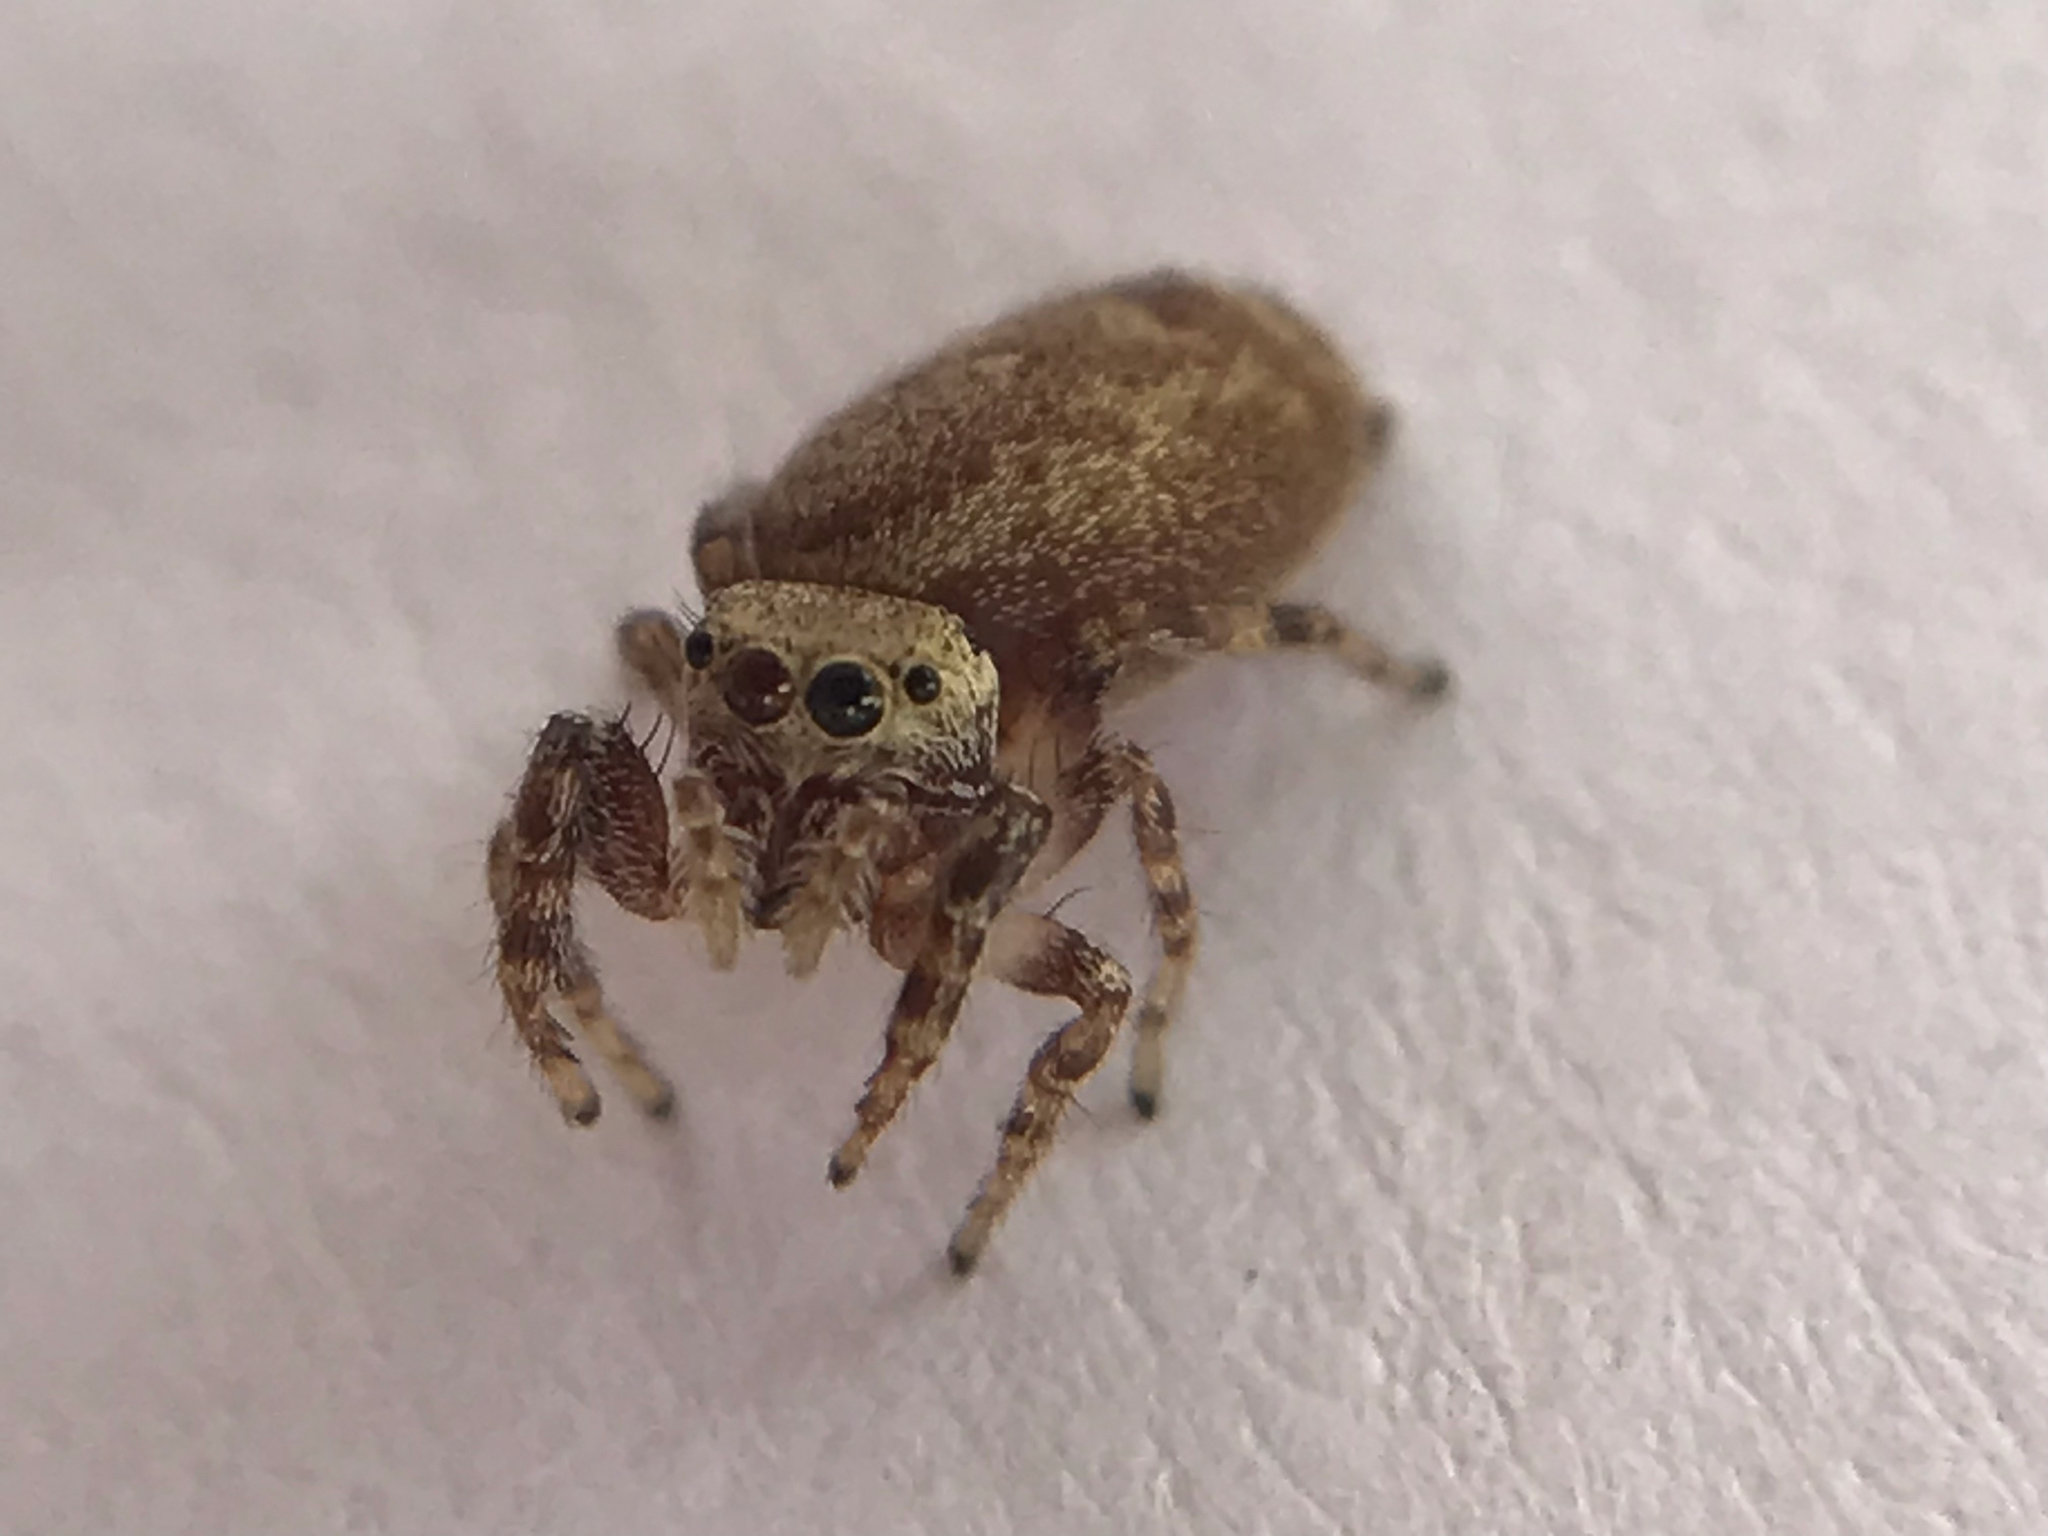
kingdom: Animalia
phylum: Arthropoda
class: Arachnida
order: Araneae
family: Salticidae
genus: Pelegrina
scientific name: Pelegrina galathea
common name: Jumping spiders
